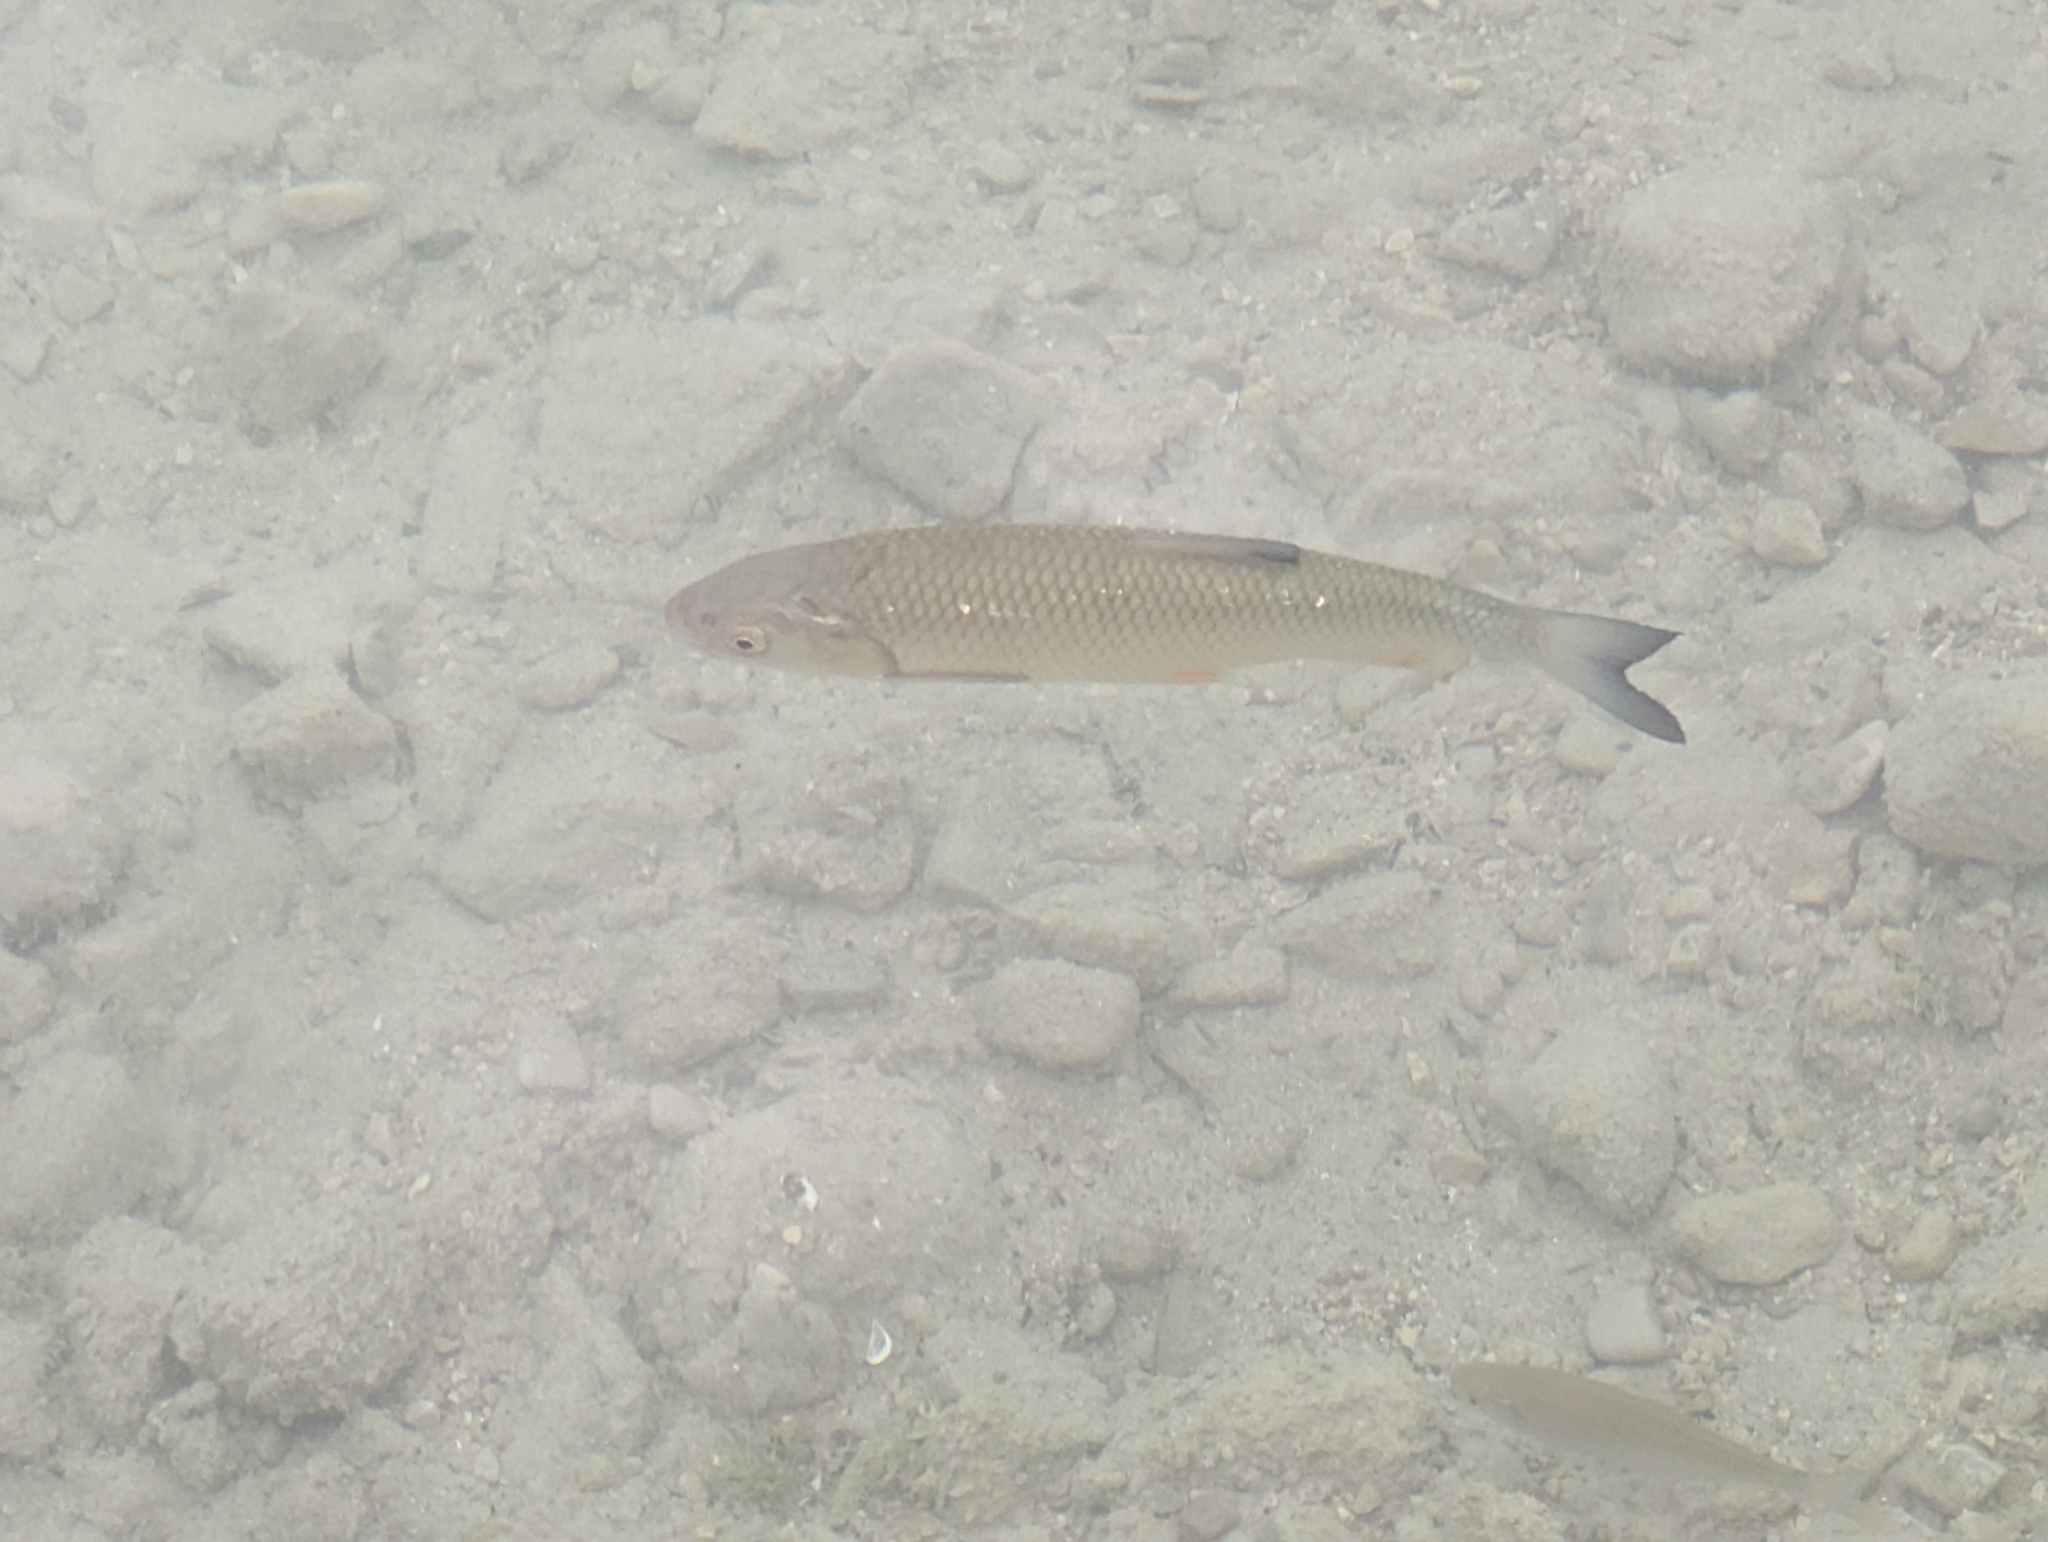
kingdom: Animalia
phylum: Chordata
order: Cypriniformes
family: Cyprinidae
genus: Squalius
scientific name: Squalius cephalus
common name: Chub
